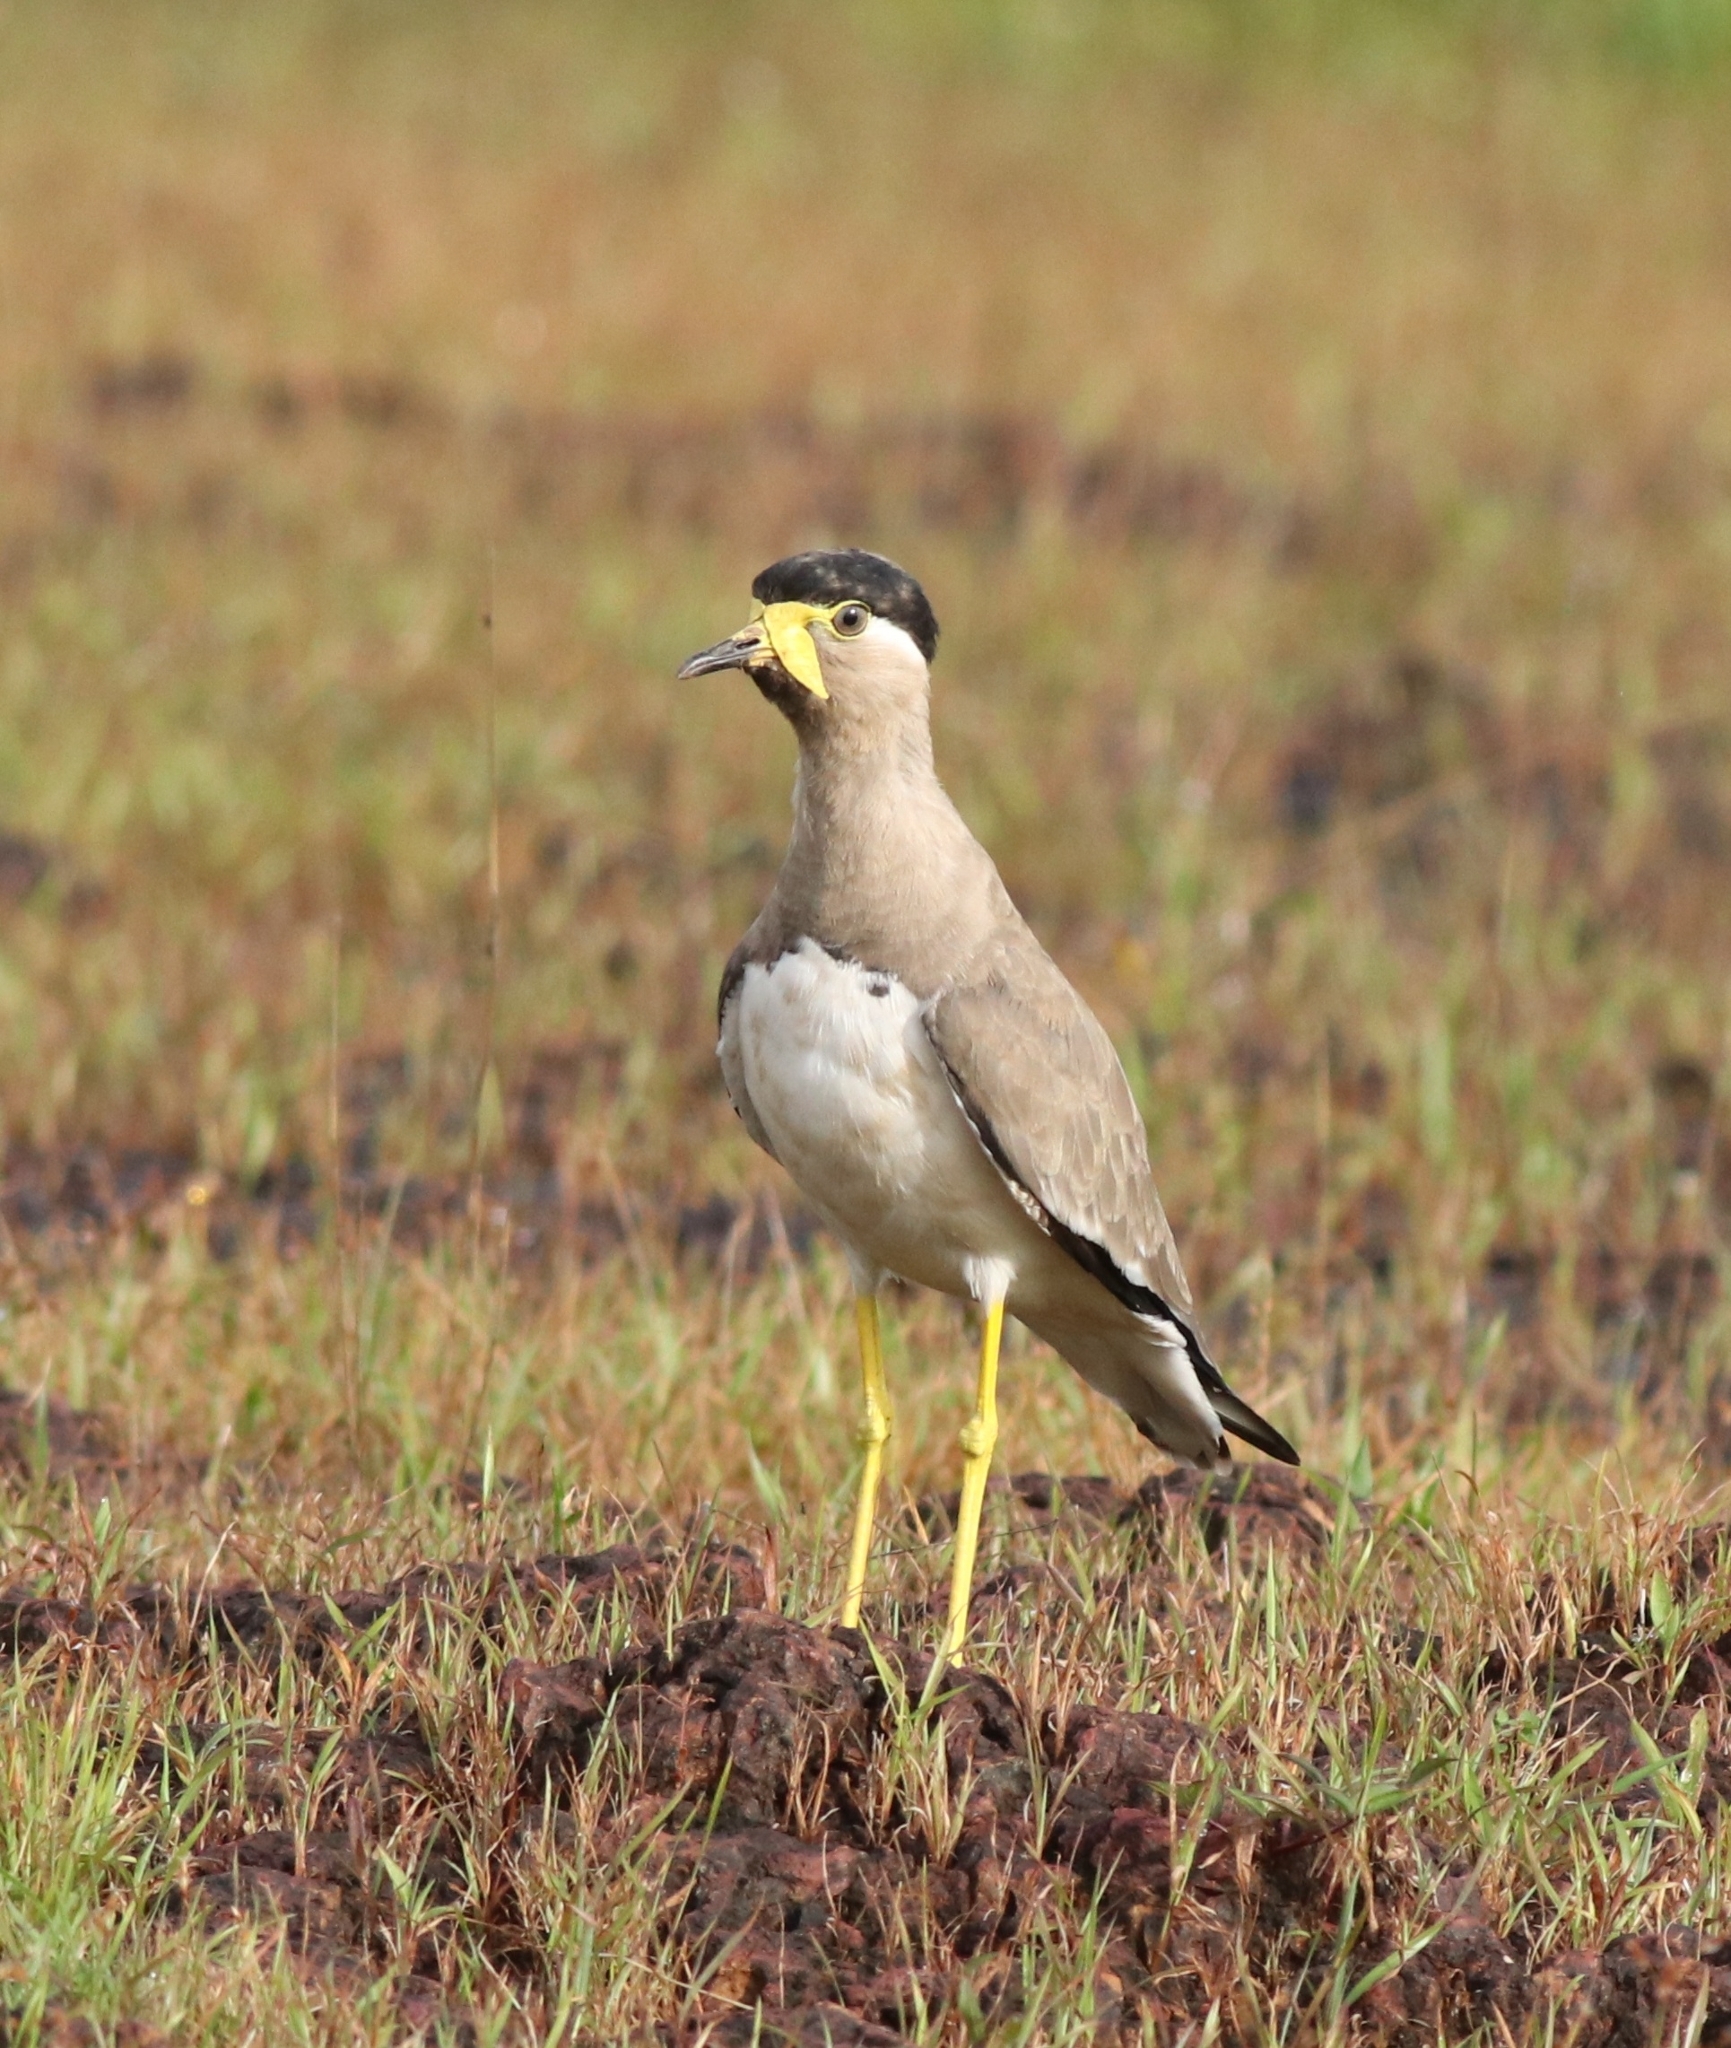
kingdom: Animalia
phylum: Chordata
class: Aves
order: Charadriiformes
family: Charadriidae
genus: Vanellus
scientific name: Vanellus malabaricus
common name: Yellow-wattled lapwing
